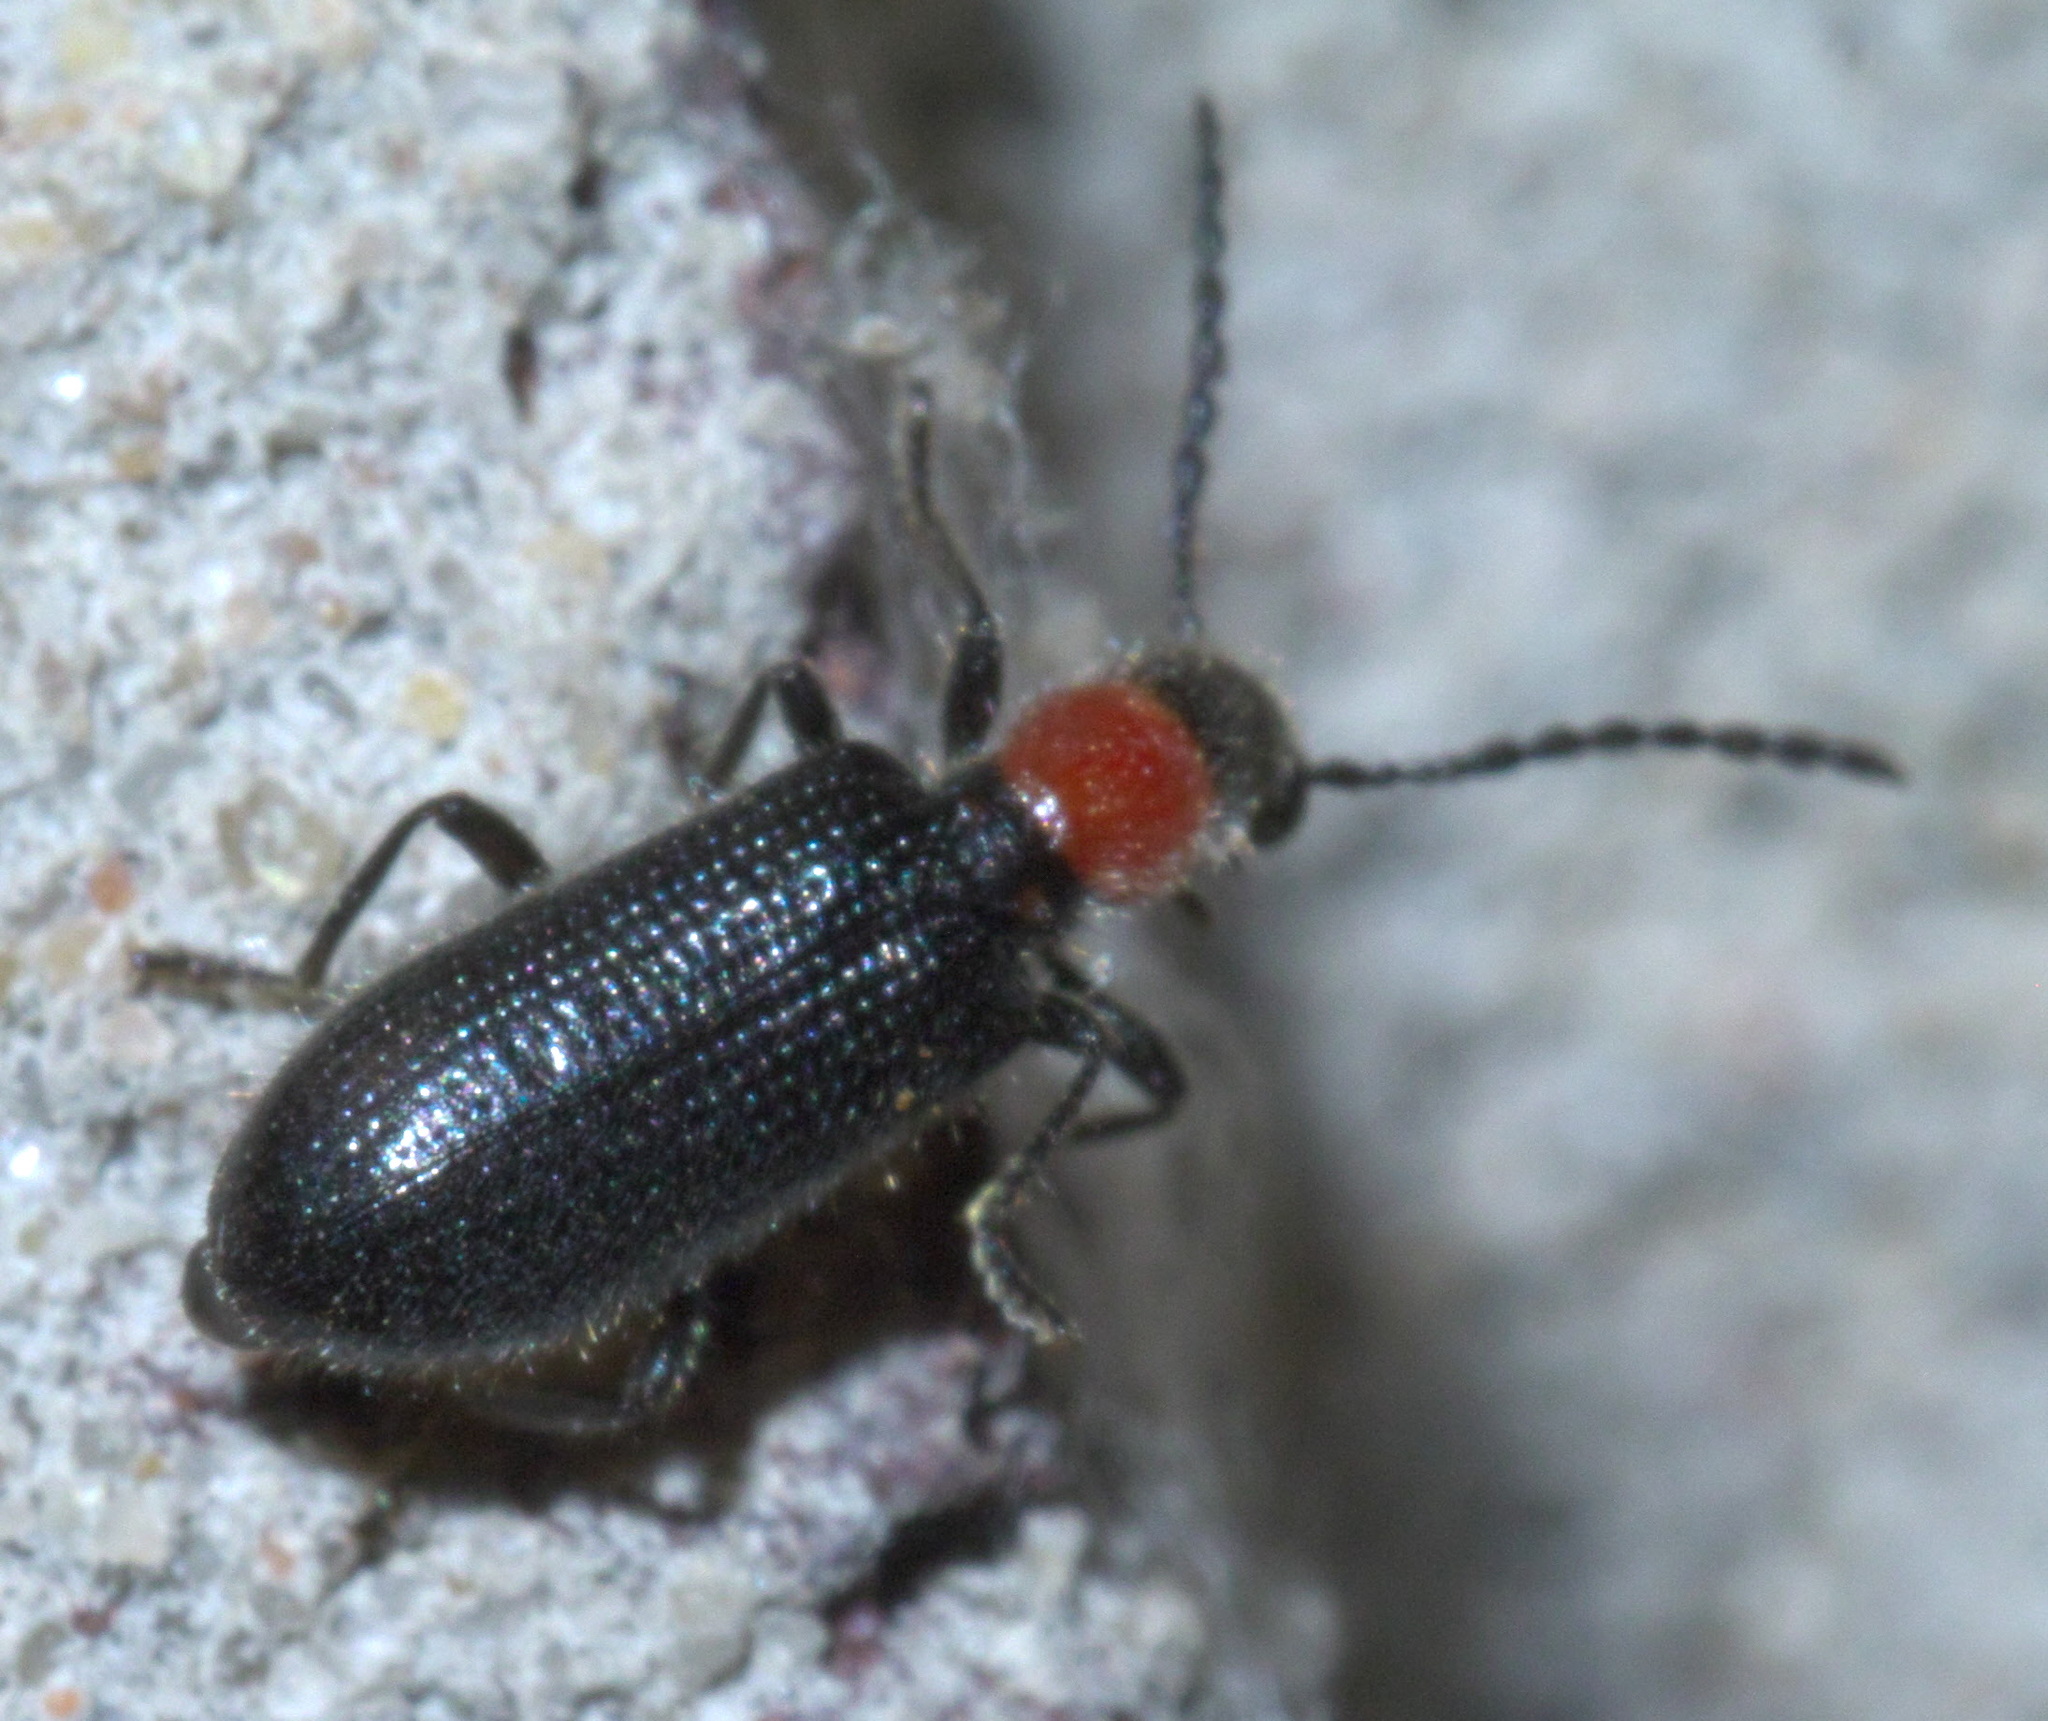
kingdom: Animalia
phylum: Arthropoda
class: Insecta
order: Coleoptera
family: Cleridae
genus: Cymatoderella
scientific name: Cymatoderella collaris
